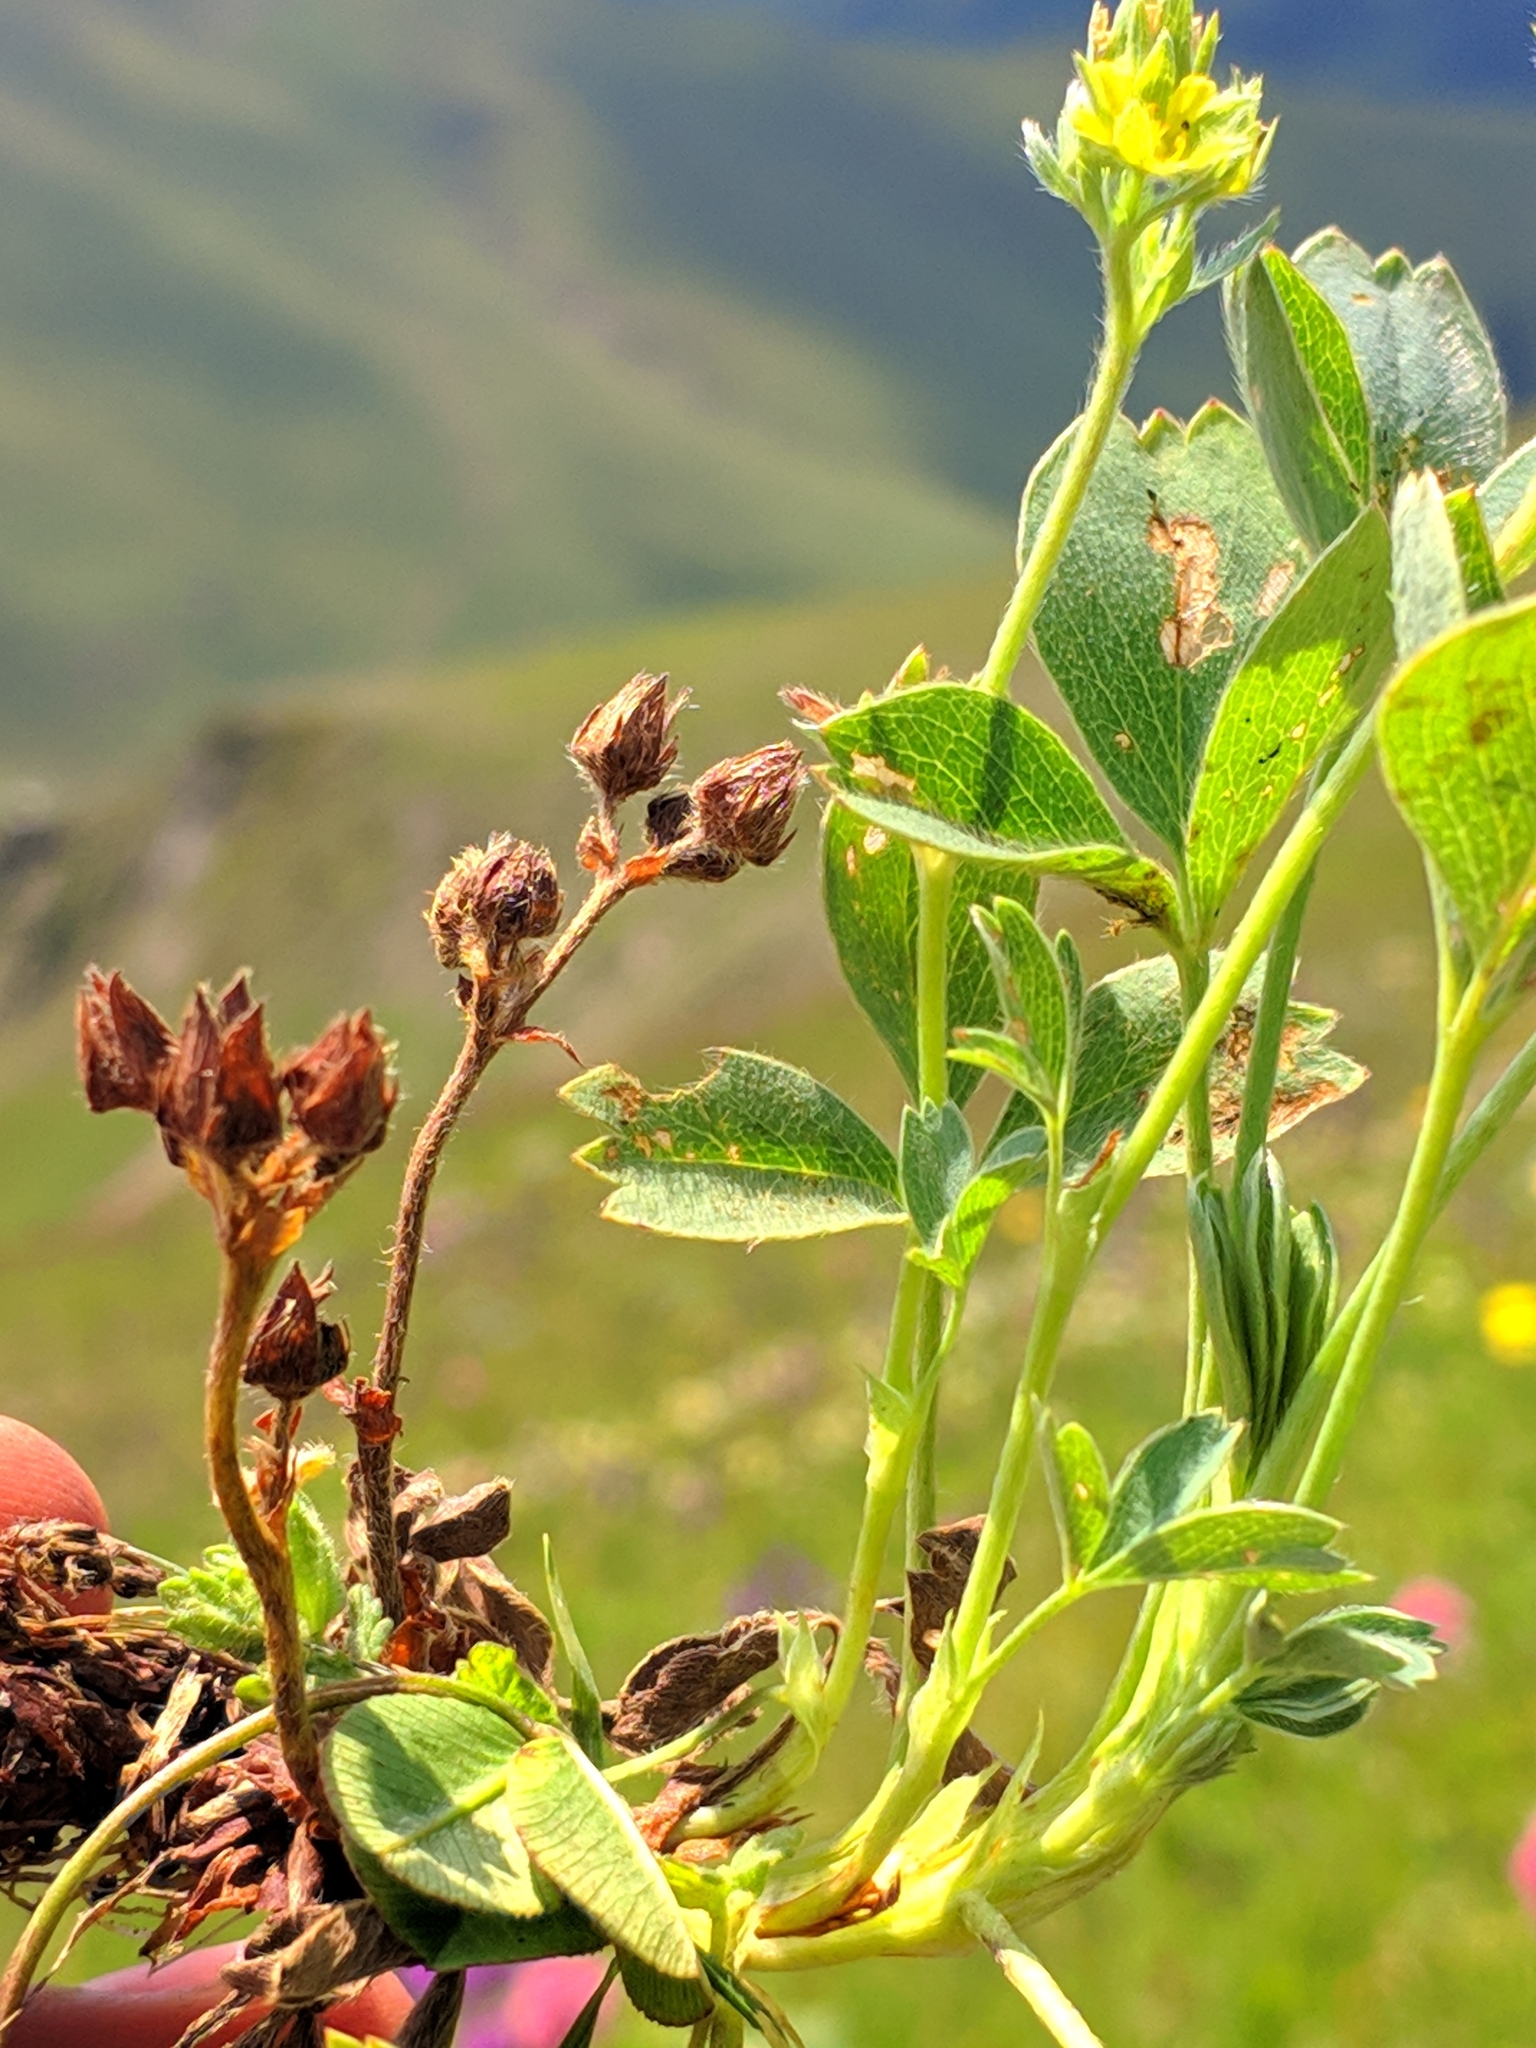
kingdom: Plantae
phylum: Tracheophyta
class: Magnoliopsida
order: Rosales
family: Rosaceae
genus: Sibbaldia
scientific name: Sibbaldia parviflora
